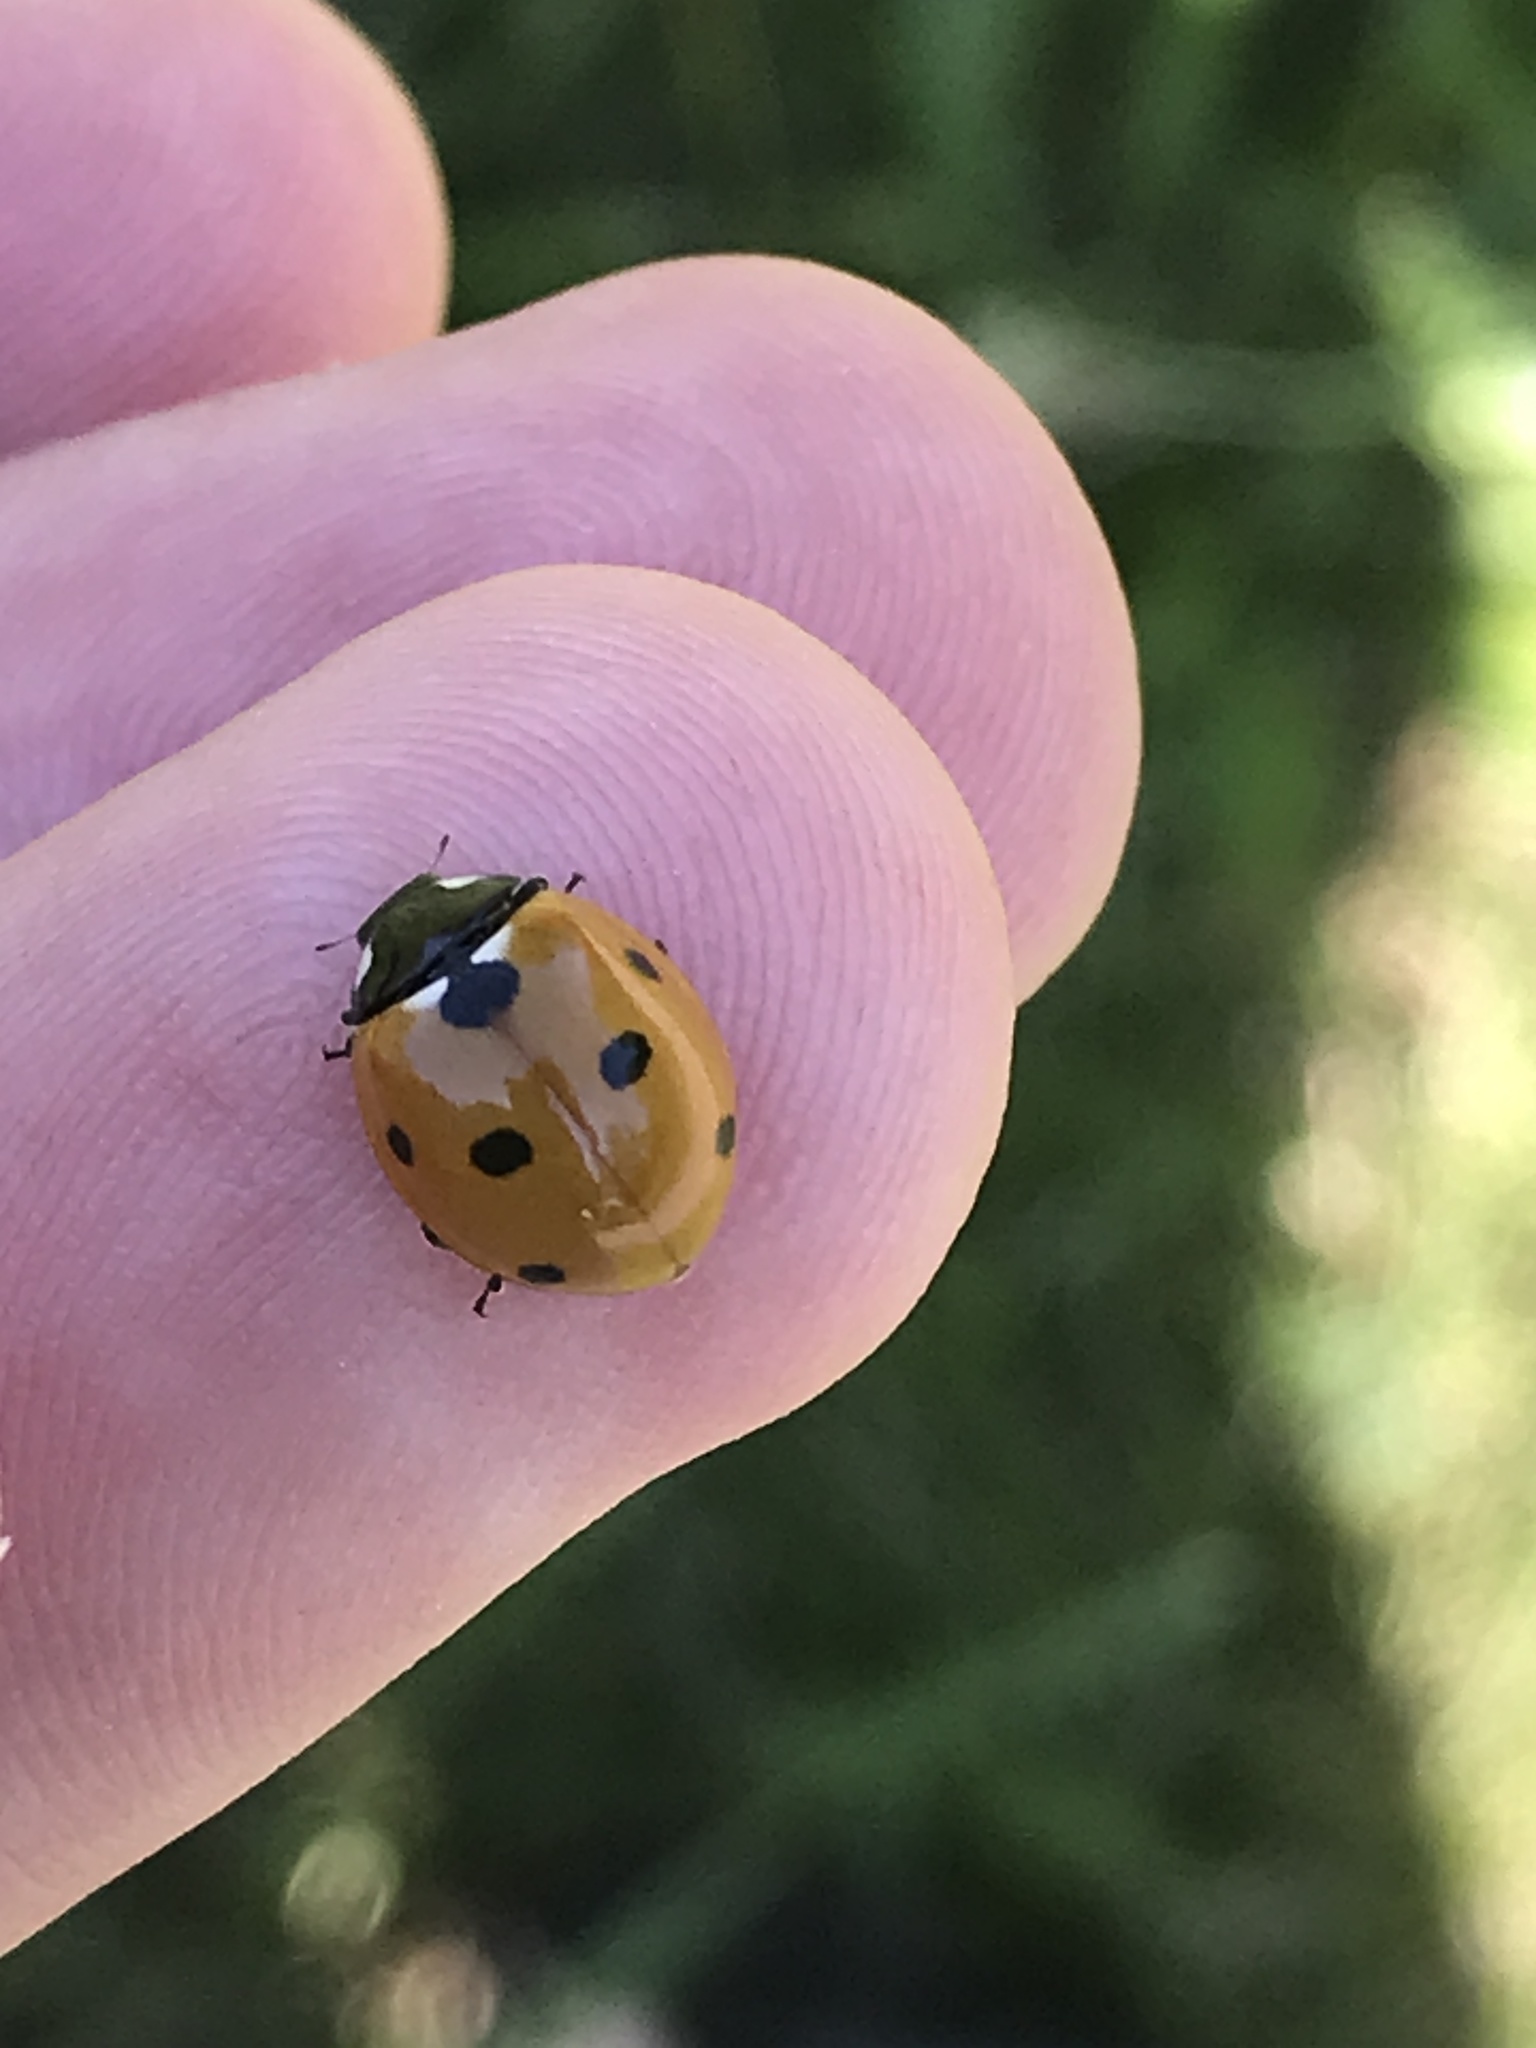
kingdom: Animalia
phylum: Arthropoda
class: Insecta
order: Coleoptera
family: Coccinellidae
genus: Coccinella
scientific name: Coccinella septempunctata
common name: Sevenspotted lady beetle
